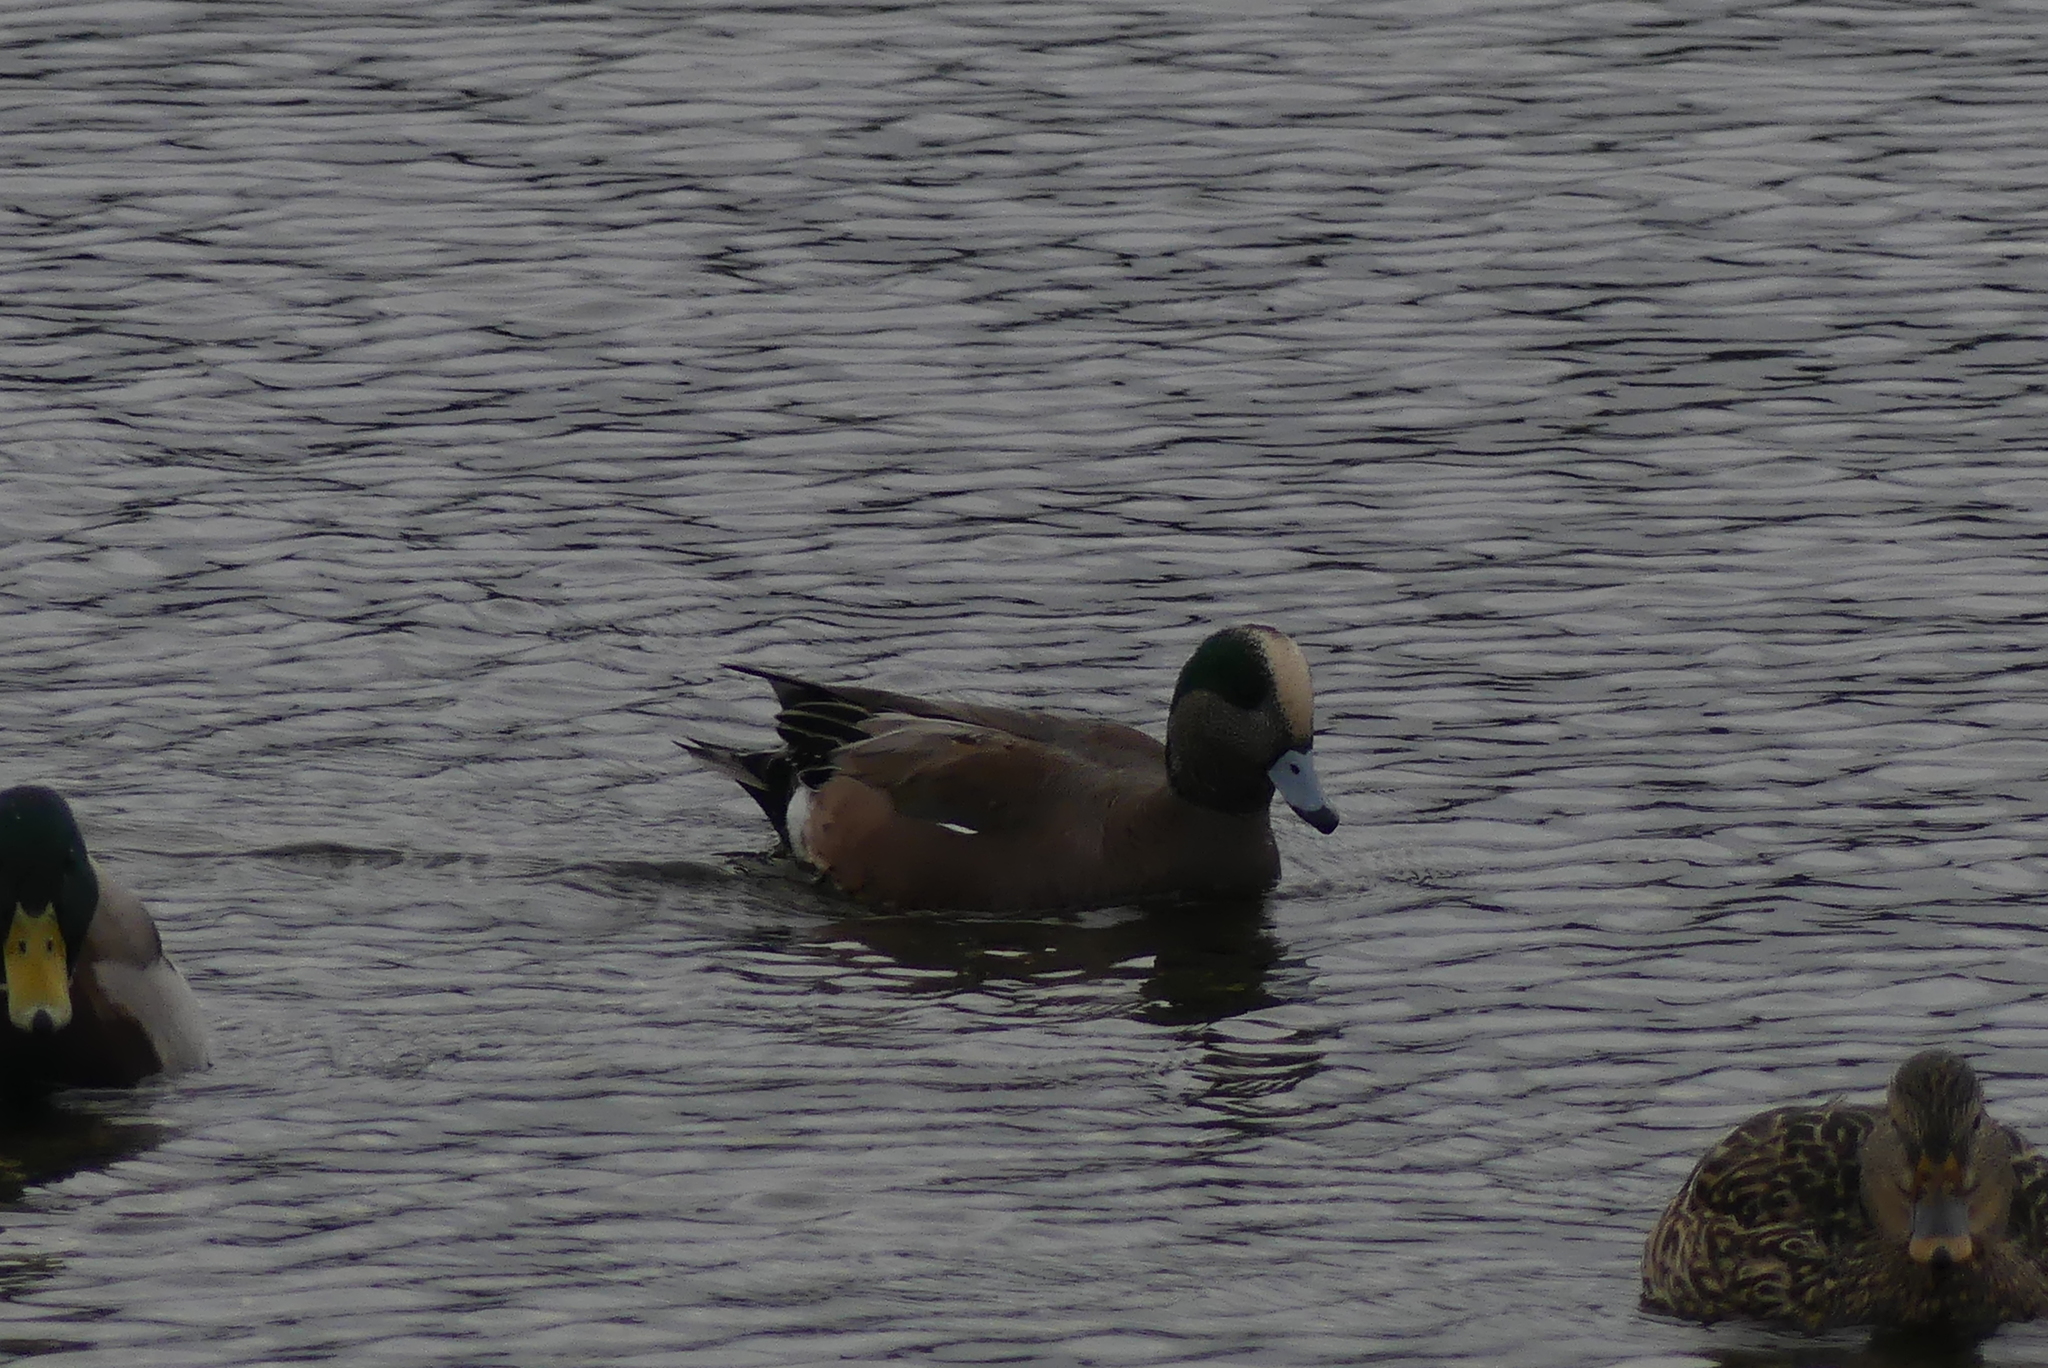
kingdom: Animalia
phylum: Chordata
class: Aves
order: Anseriformes
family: Anatidae
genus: Mareca
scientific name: Mareca americana
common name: American wigeon
